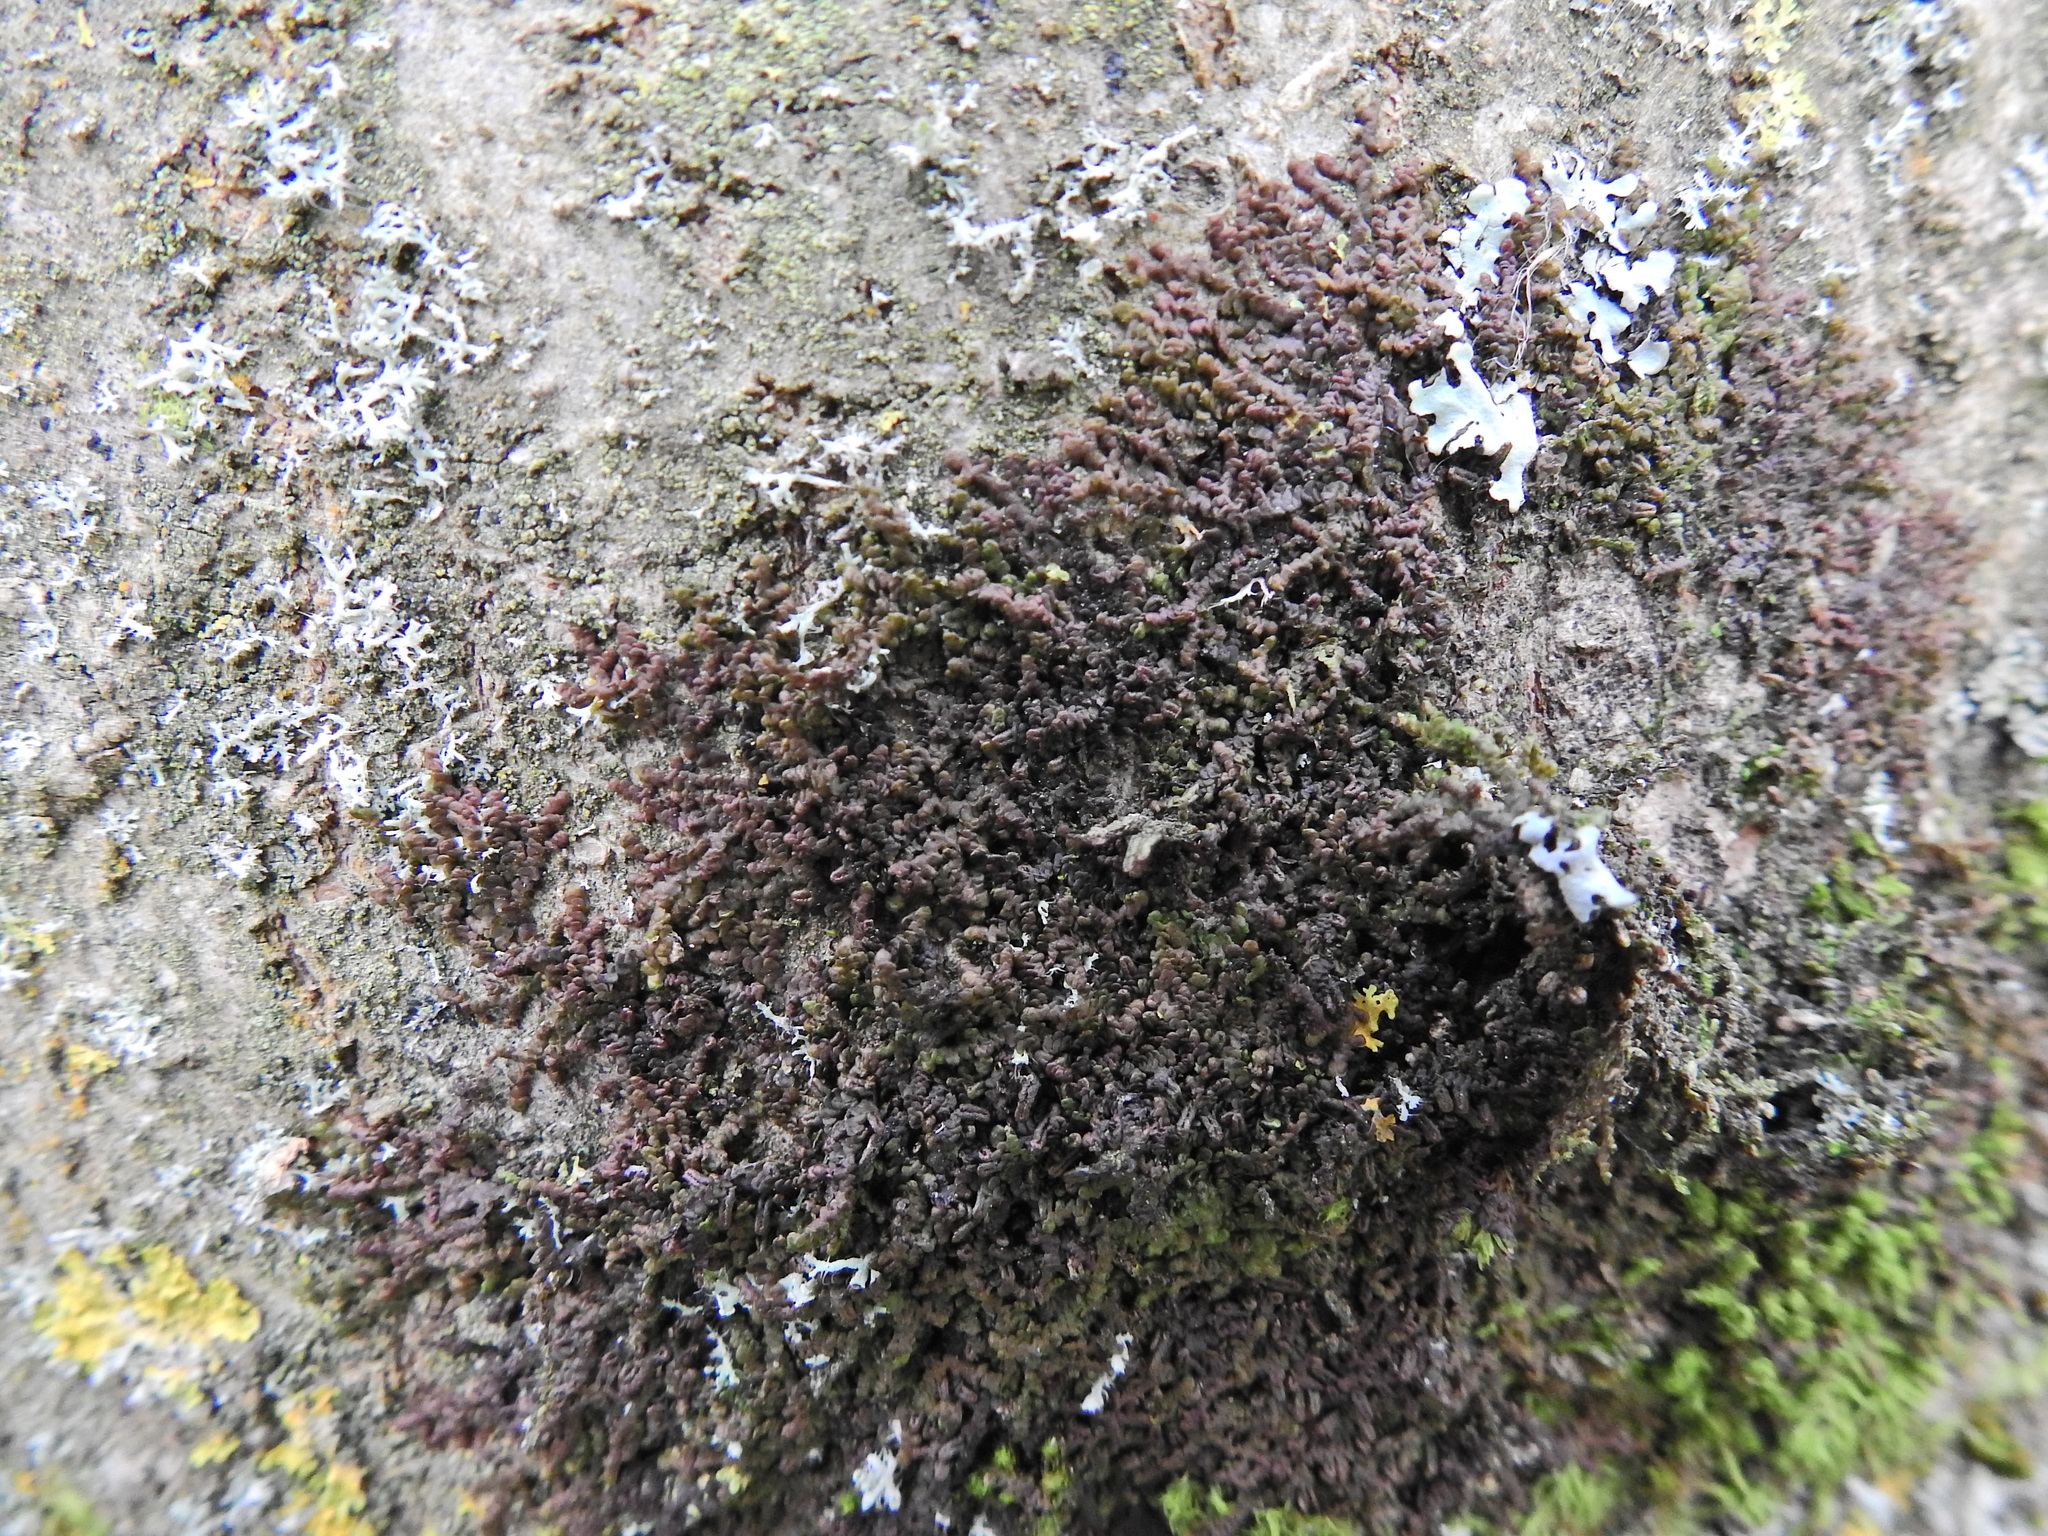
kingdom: Plantae
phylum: Marchantiophyta
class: Jungermanniopsida
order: Porellales
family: Frullaniaceae
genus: Frullania
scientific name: Frullania dilatata
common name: Dilated scalewort
